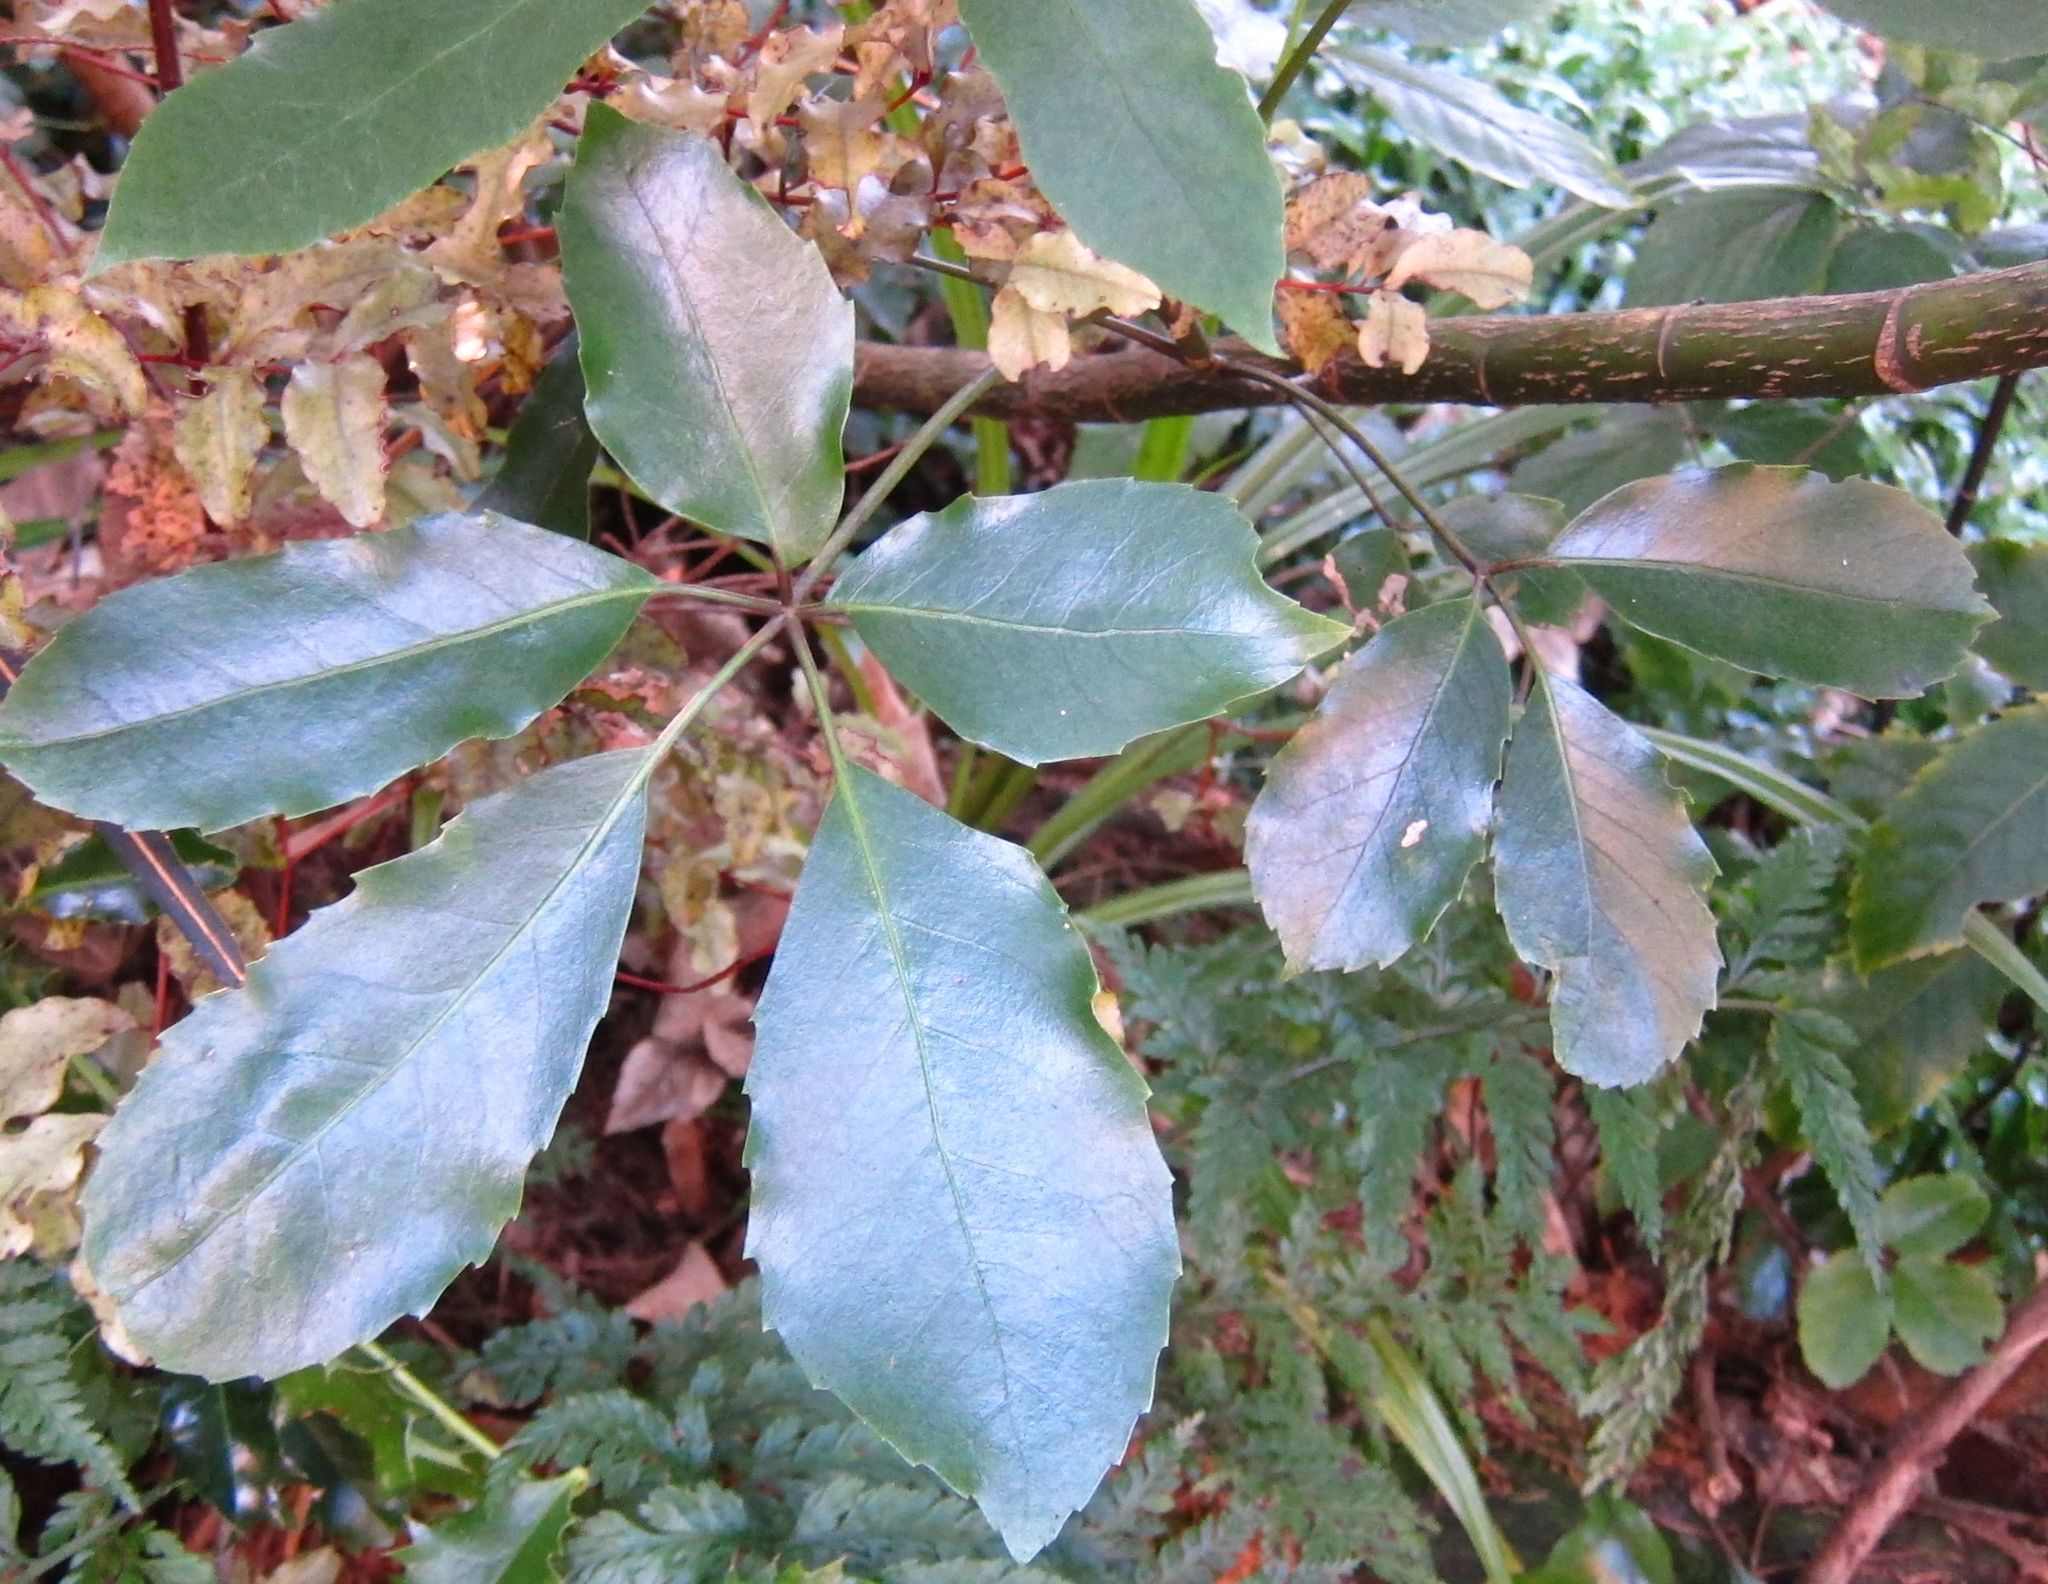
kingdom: Plantae
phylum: Tracheophyta
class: Magnoliopsida
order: Apiales
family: Araliaceae
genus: Neopanax
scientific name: Neopanax arboreus
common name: Five-fingers
